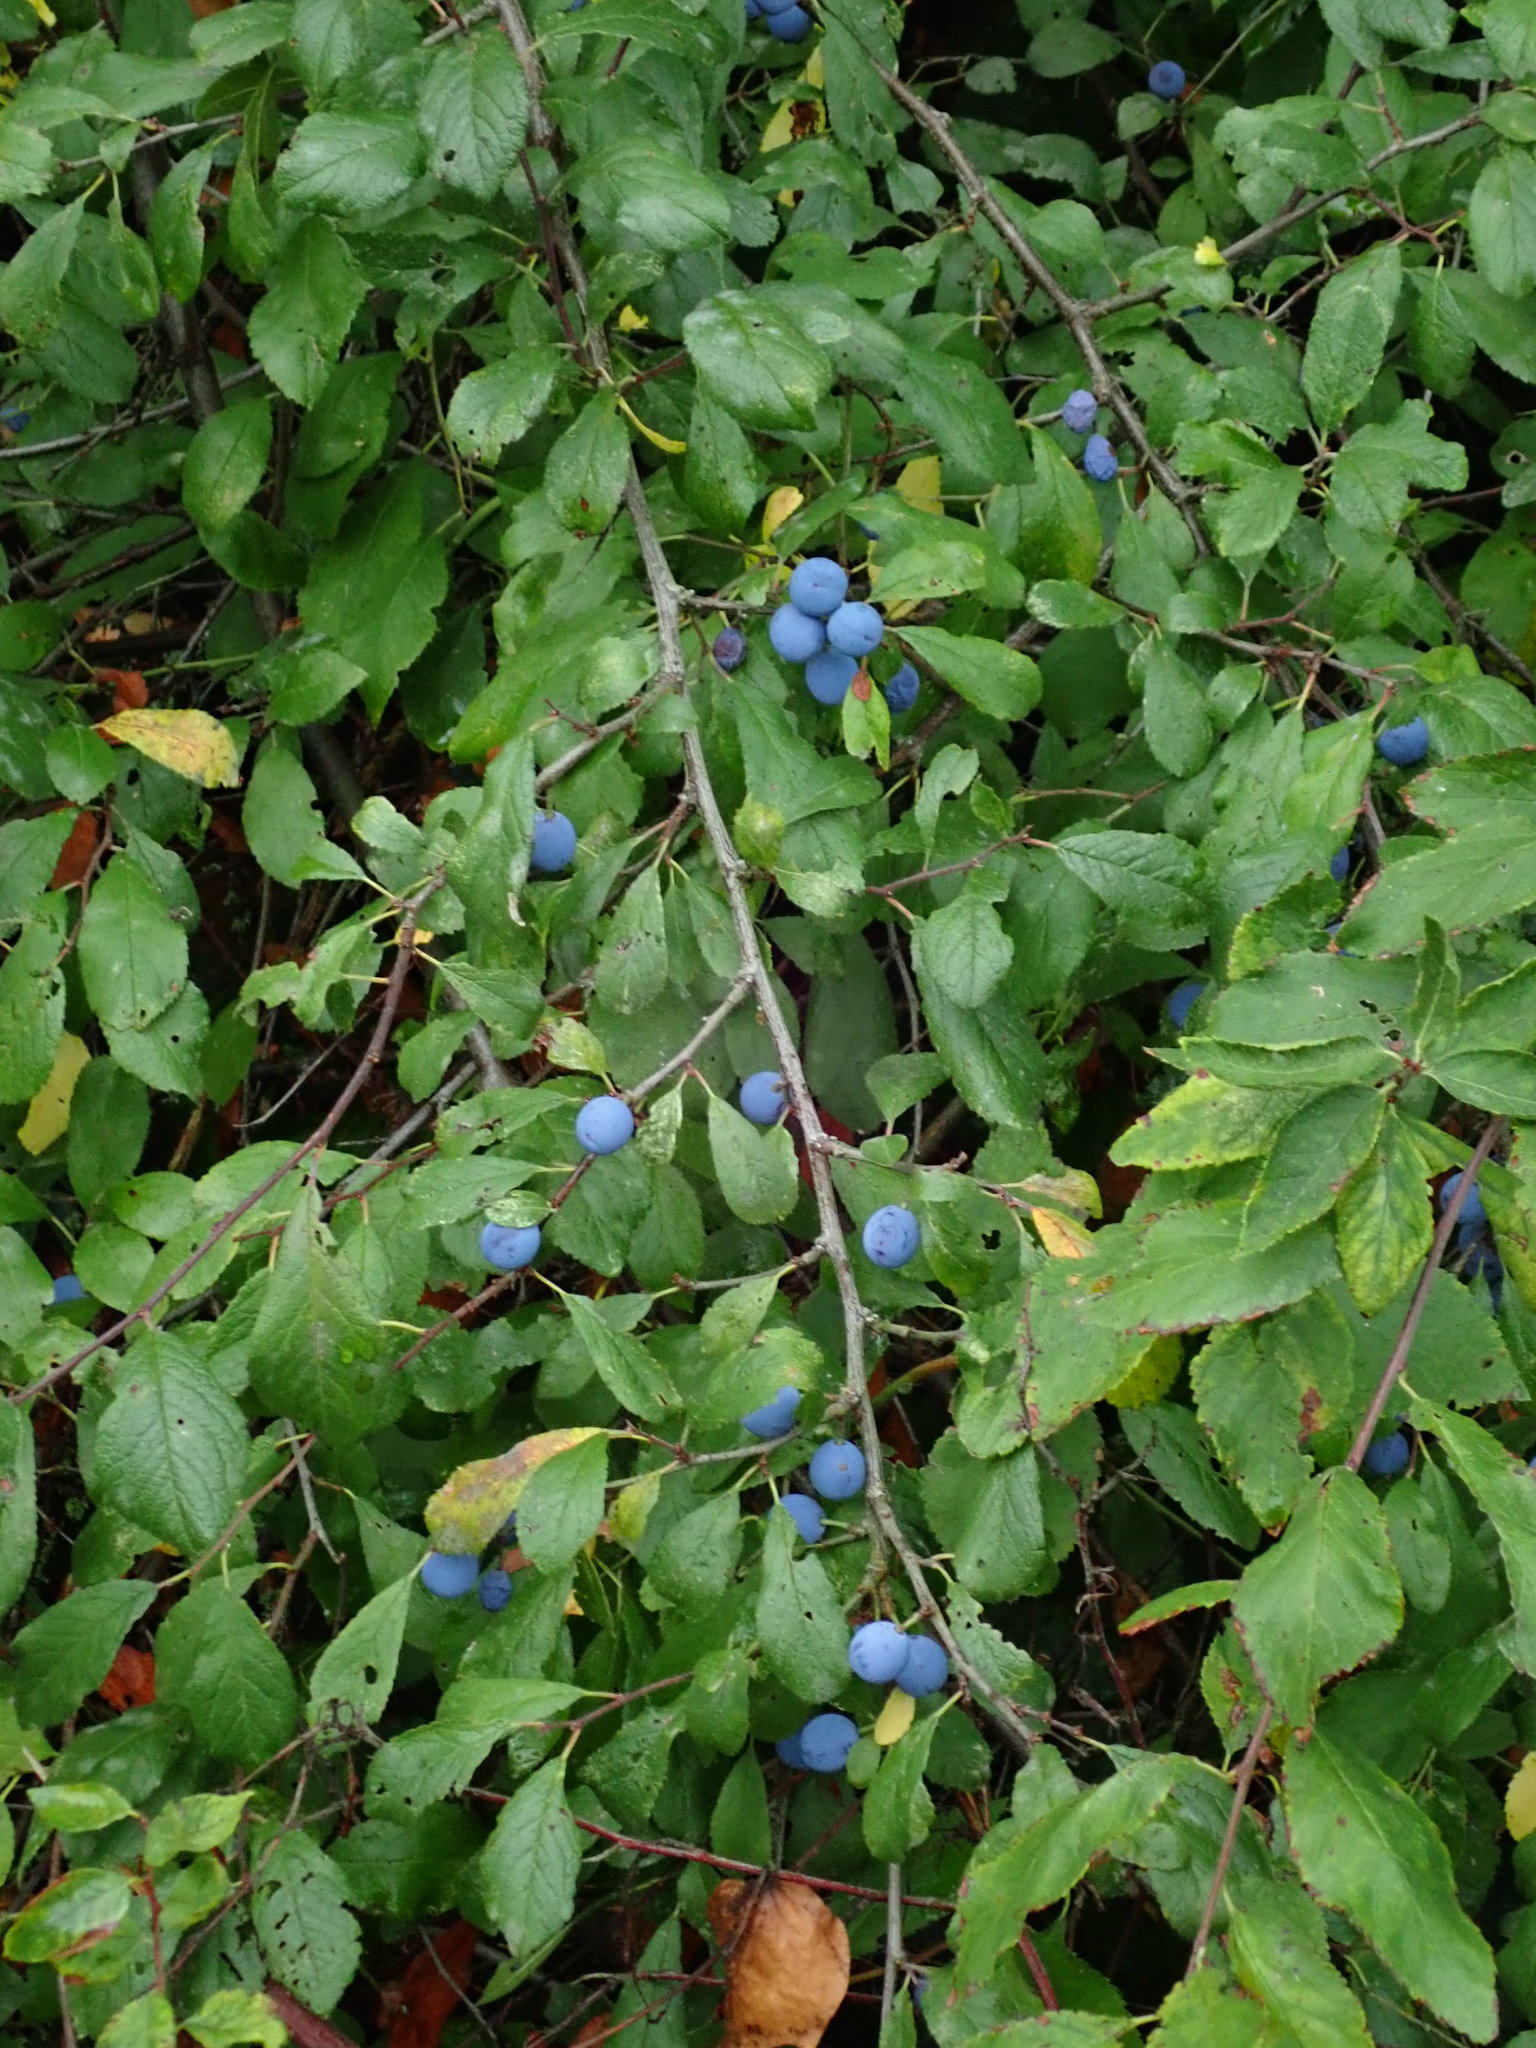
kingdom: Plantae
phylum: Tracheophyta
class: Magnoliopsida
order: Rosales
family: Rosaceae
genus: Prunus
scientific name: Prunus spinosa
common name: Blackthorn
